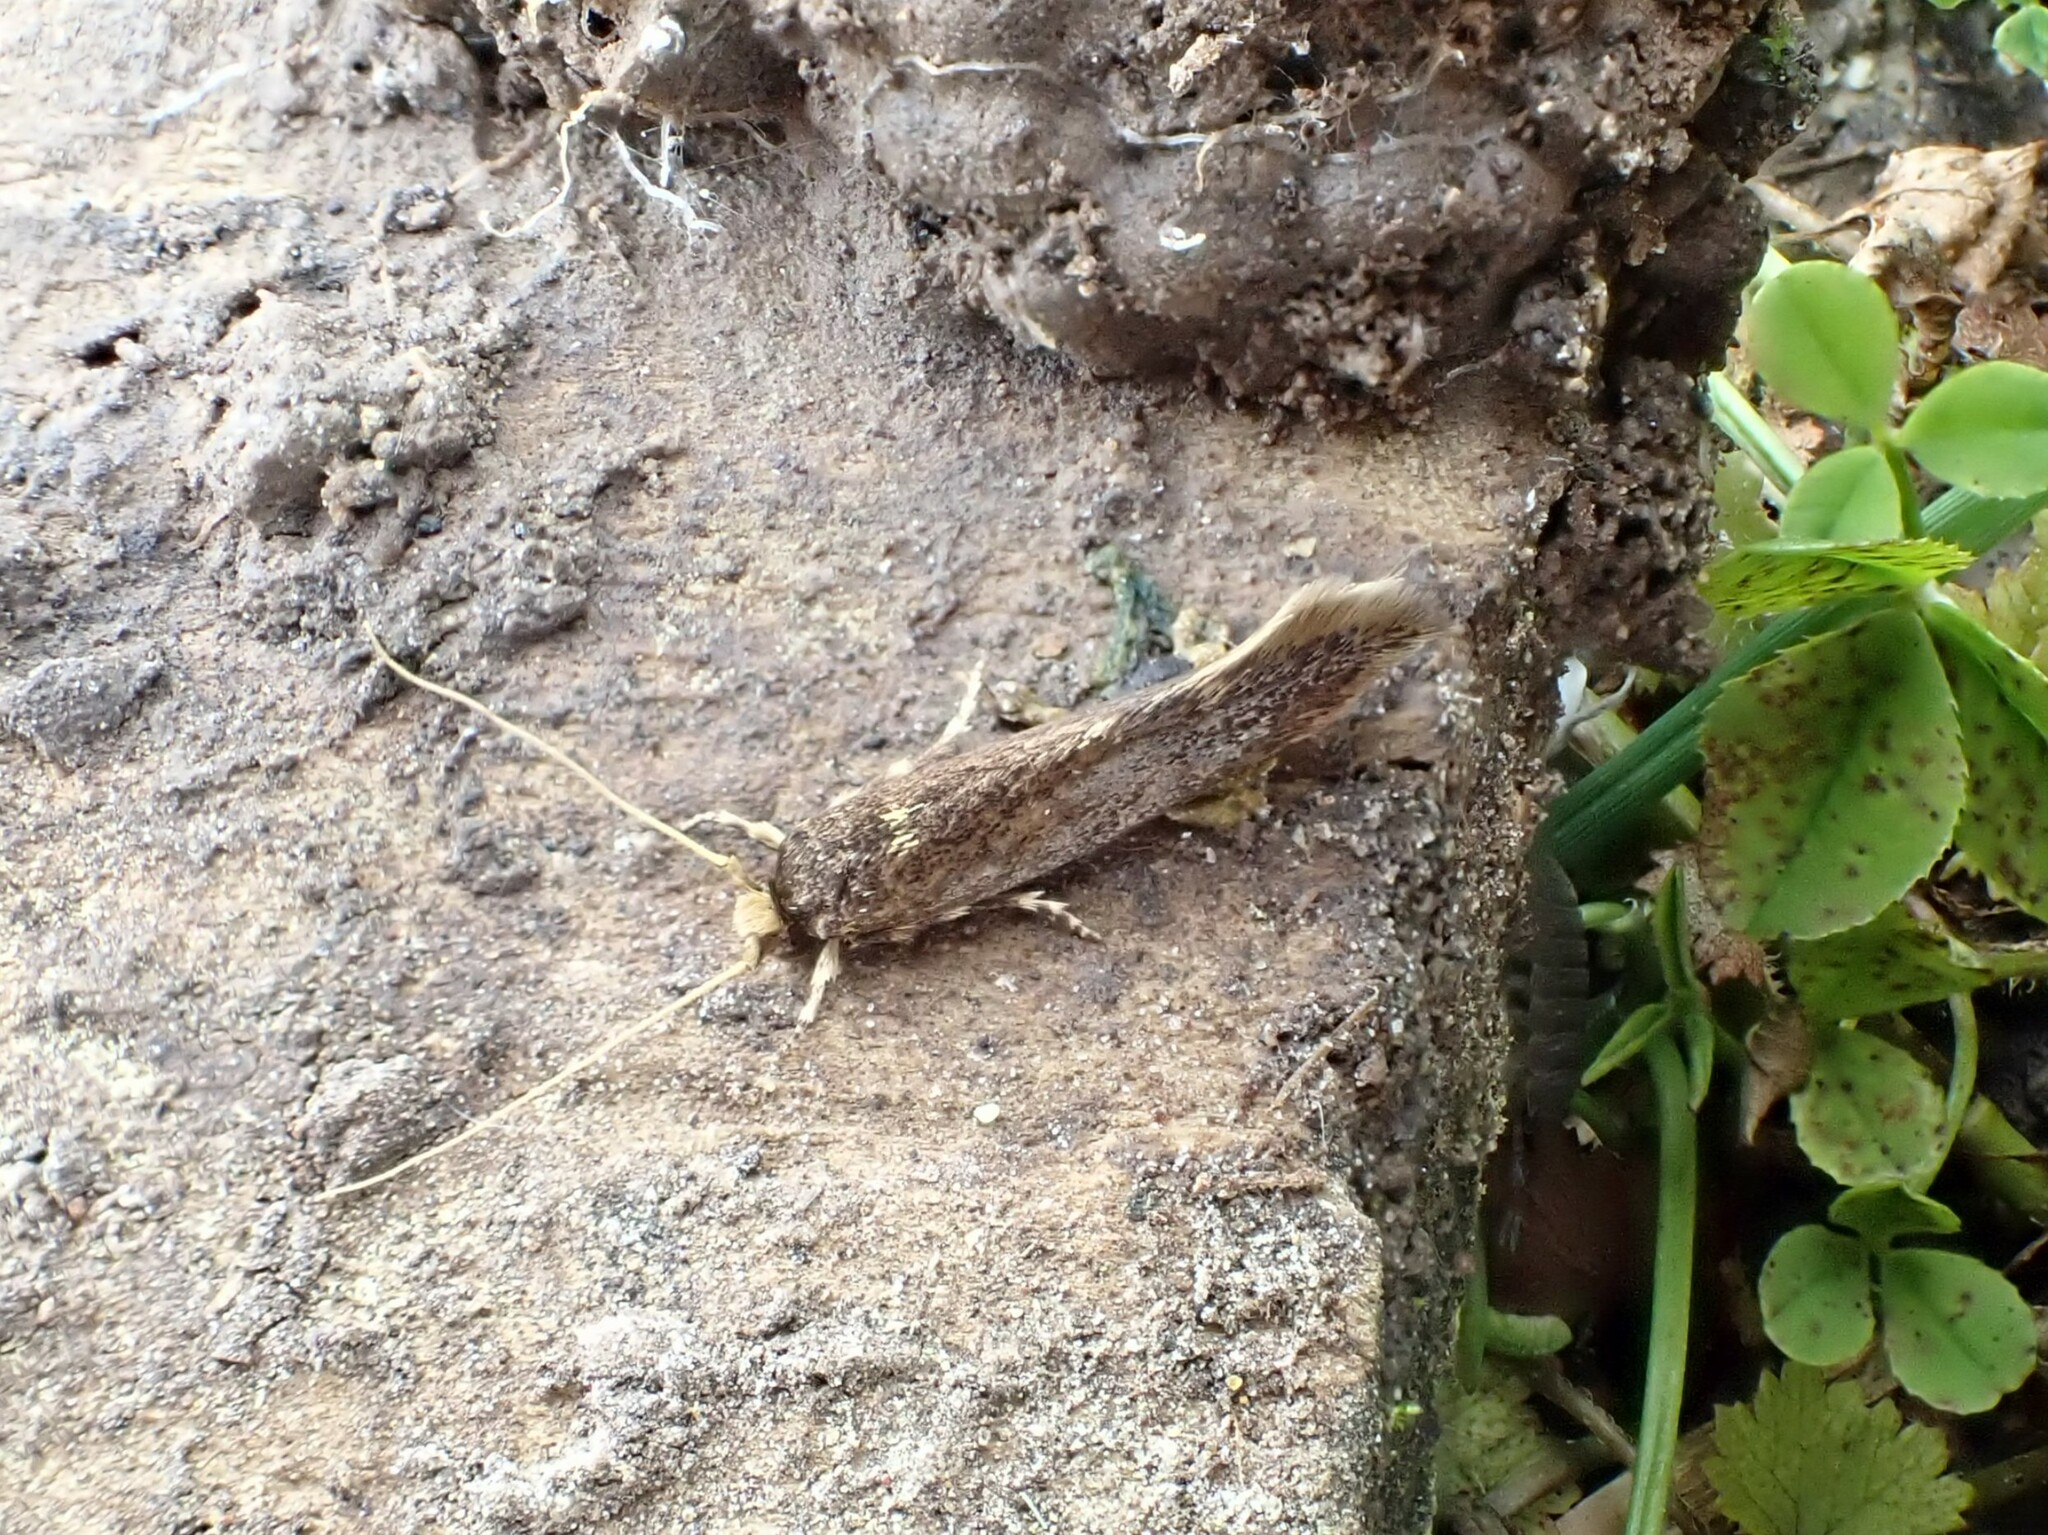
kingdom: Animalia
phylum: Arthropoda
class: Insecta
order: Lepidoptera
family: Tineidae
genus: Opogona
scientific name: Opogona omoscopa
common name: Moth
